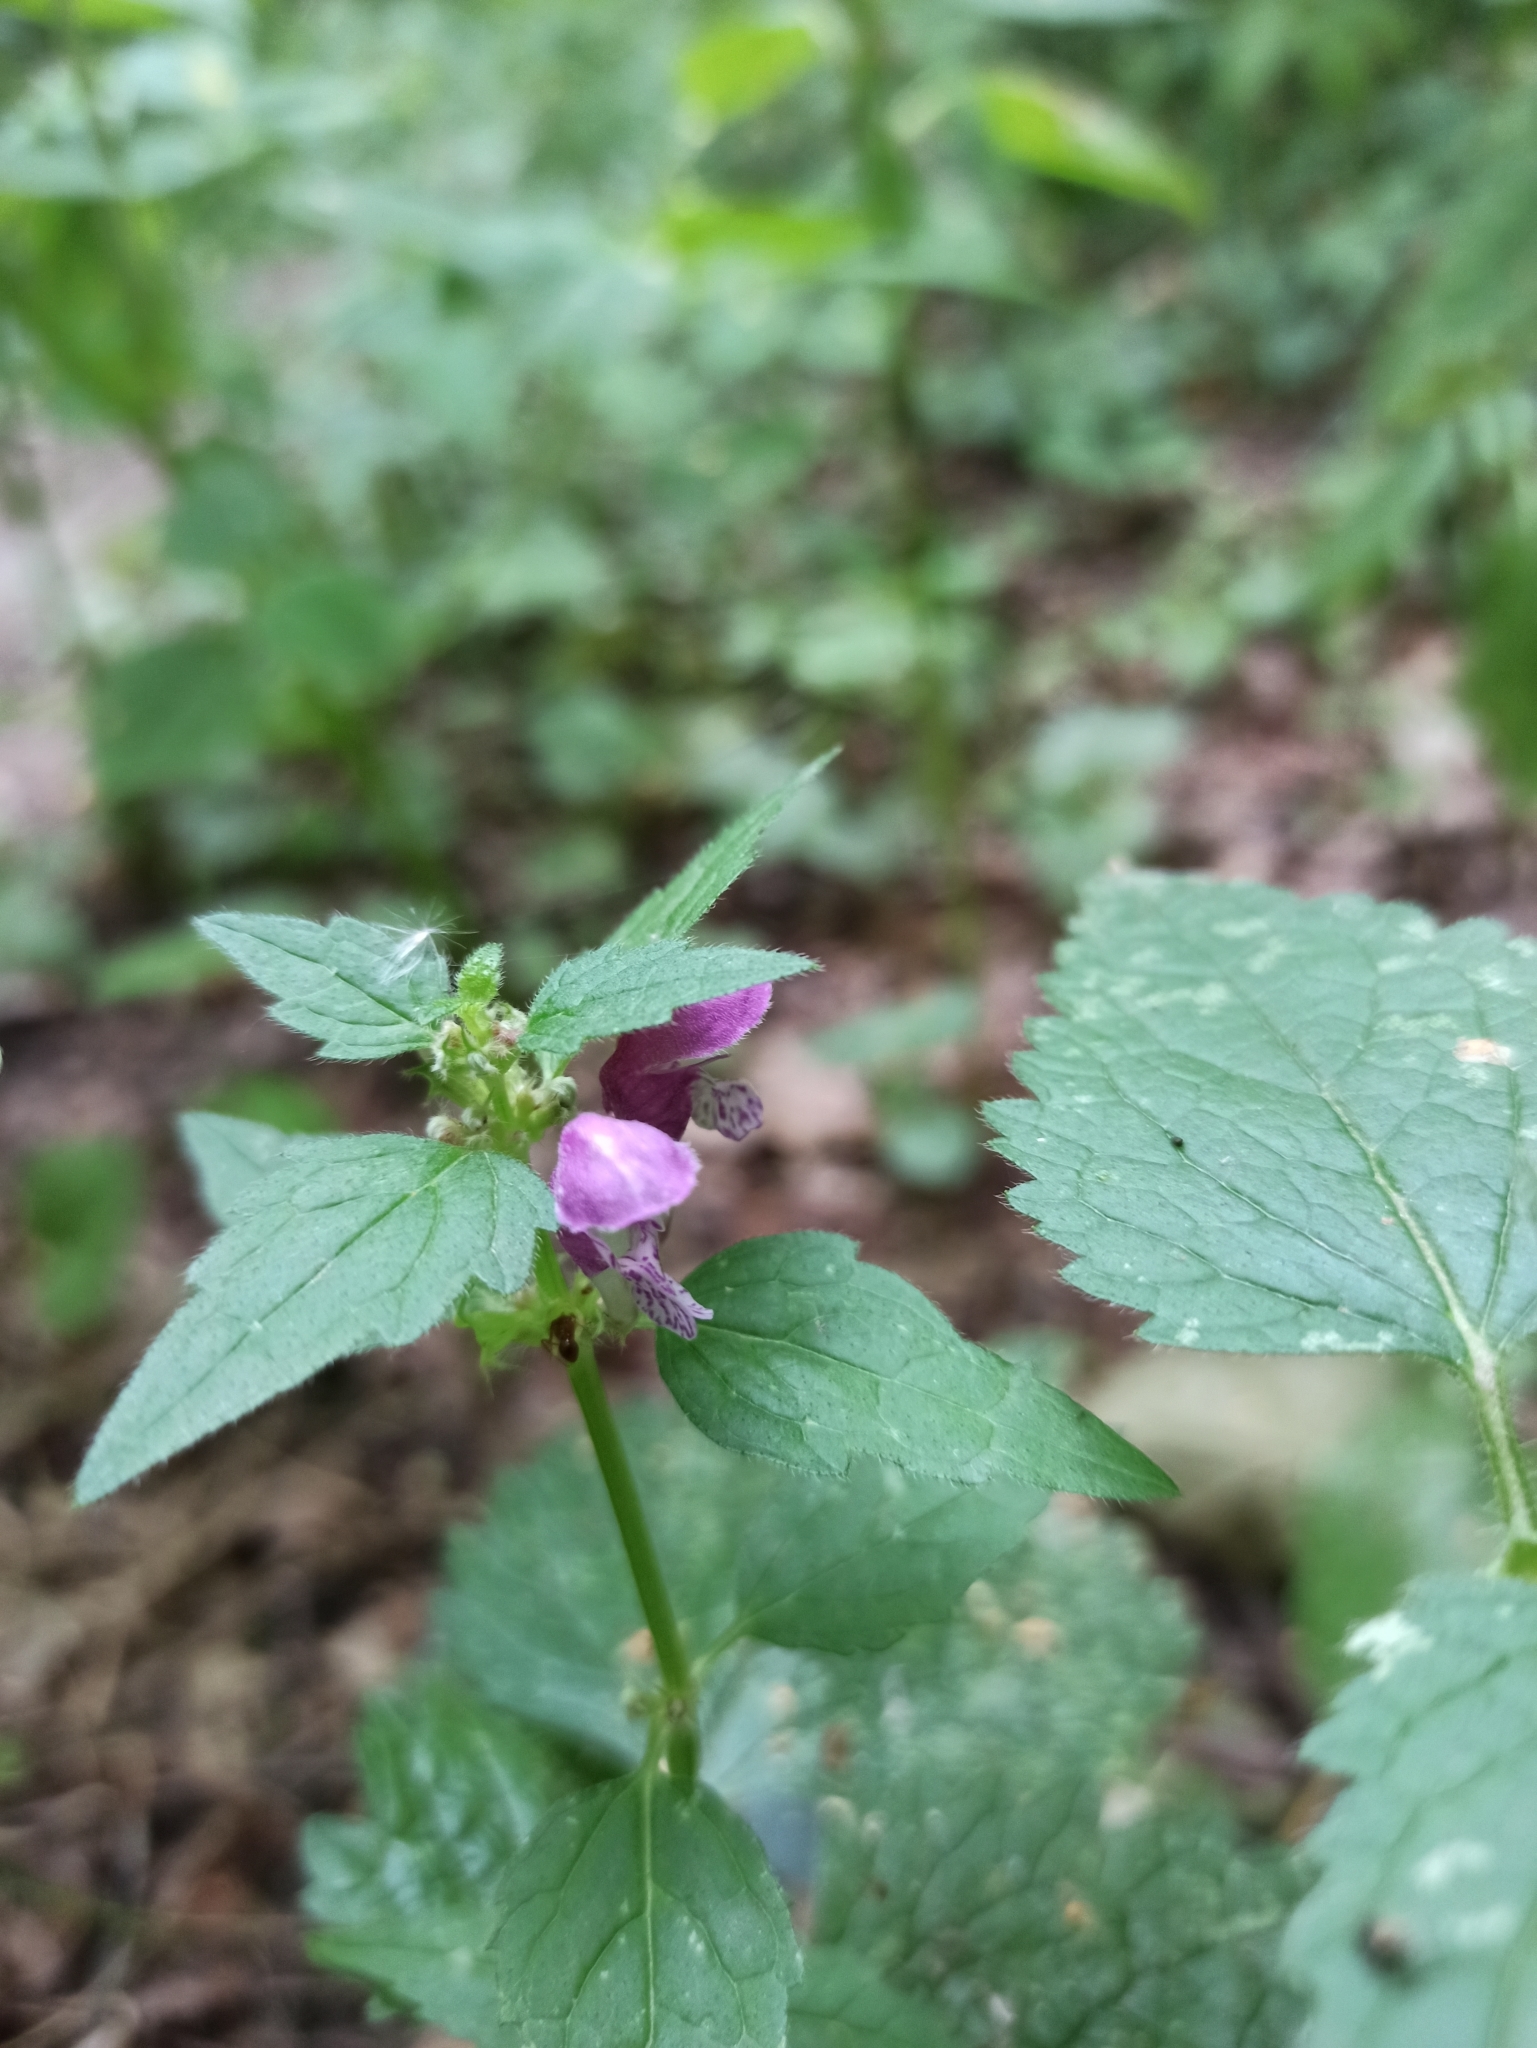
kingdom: Plantae
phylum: Tracheophyta
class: Magnoliopsida
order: Lamiales
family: Lamiaceae
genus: Lamium
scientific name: Lamium maculatum
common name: Spotted dead-nettle
